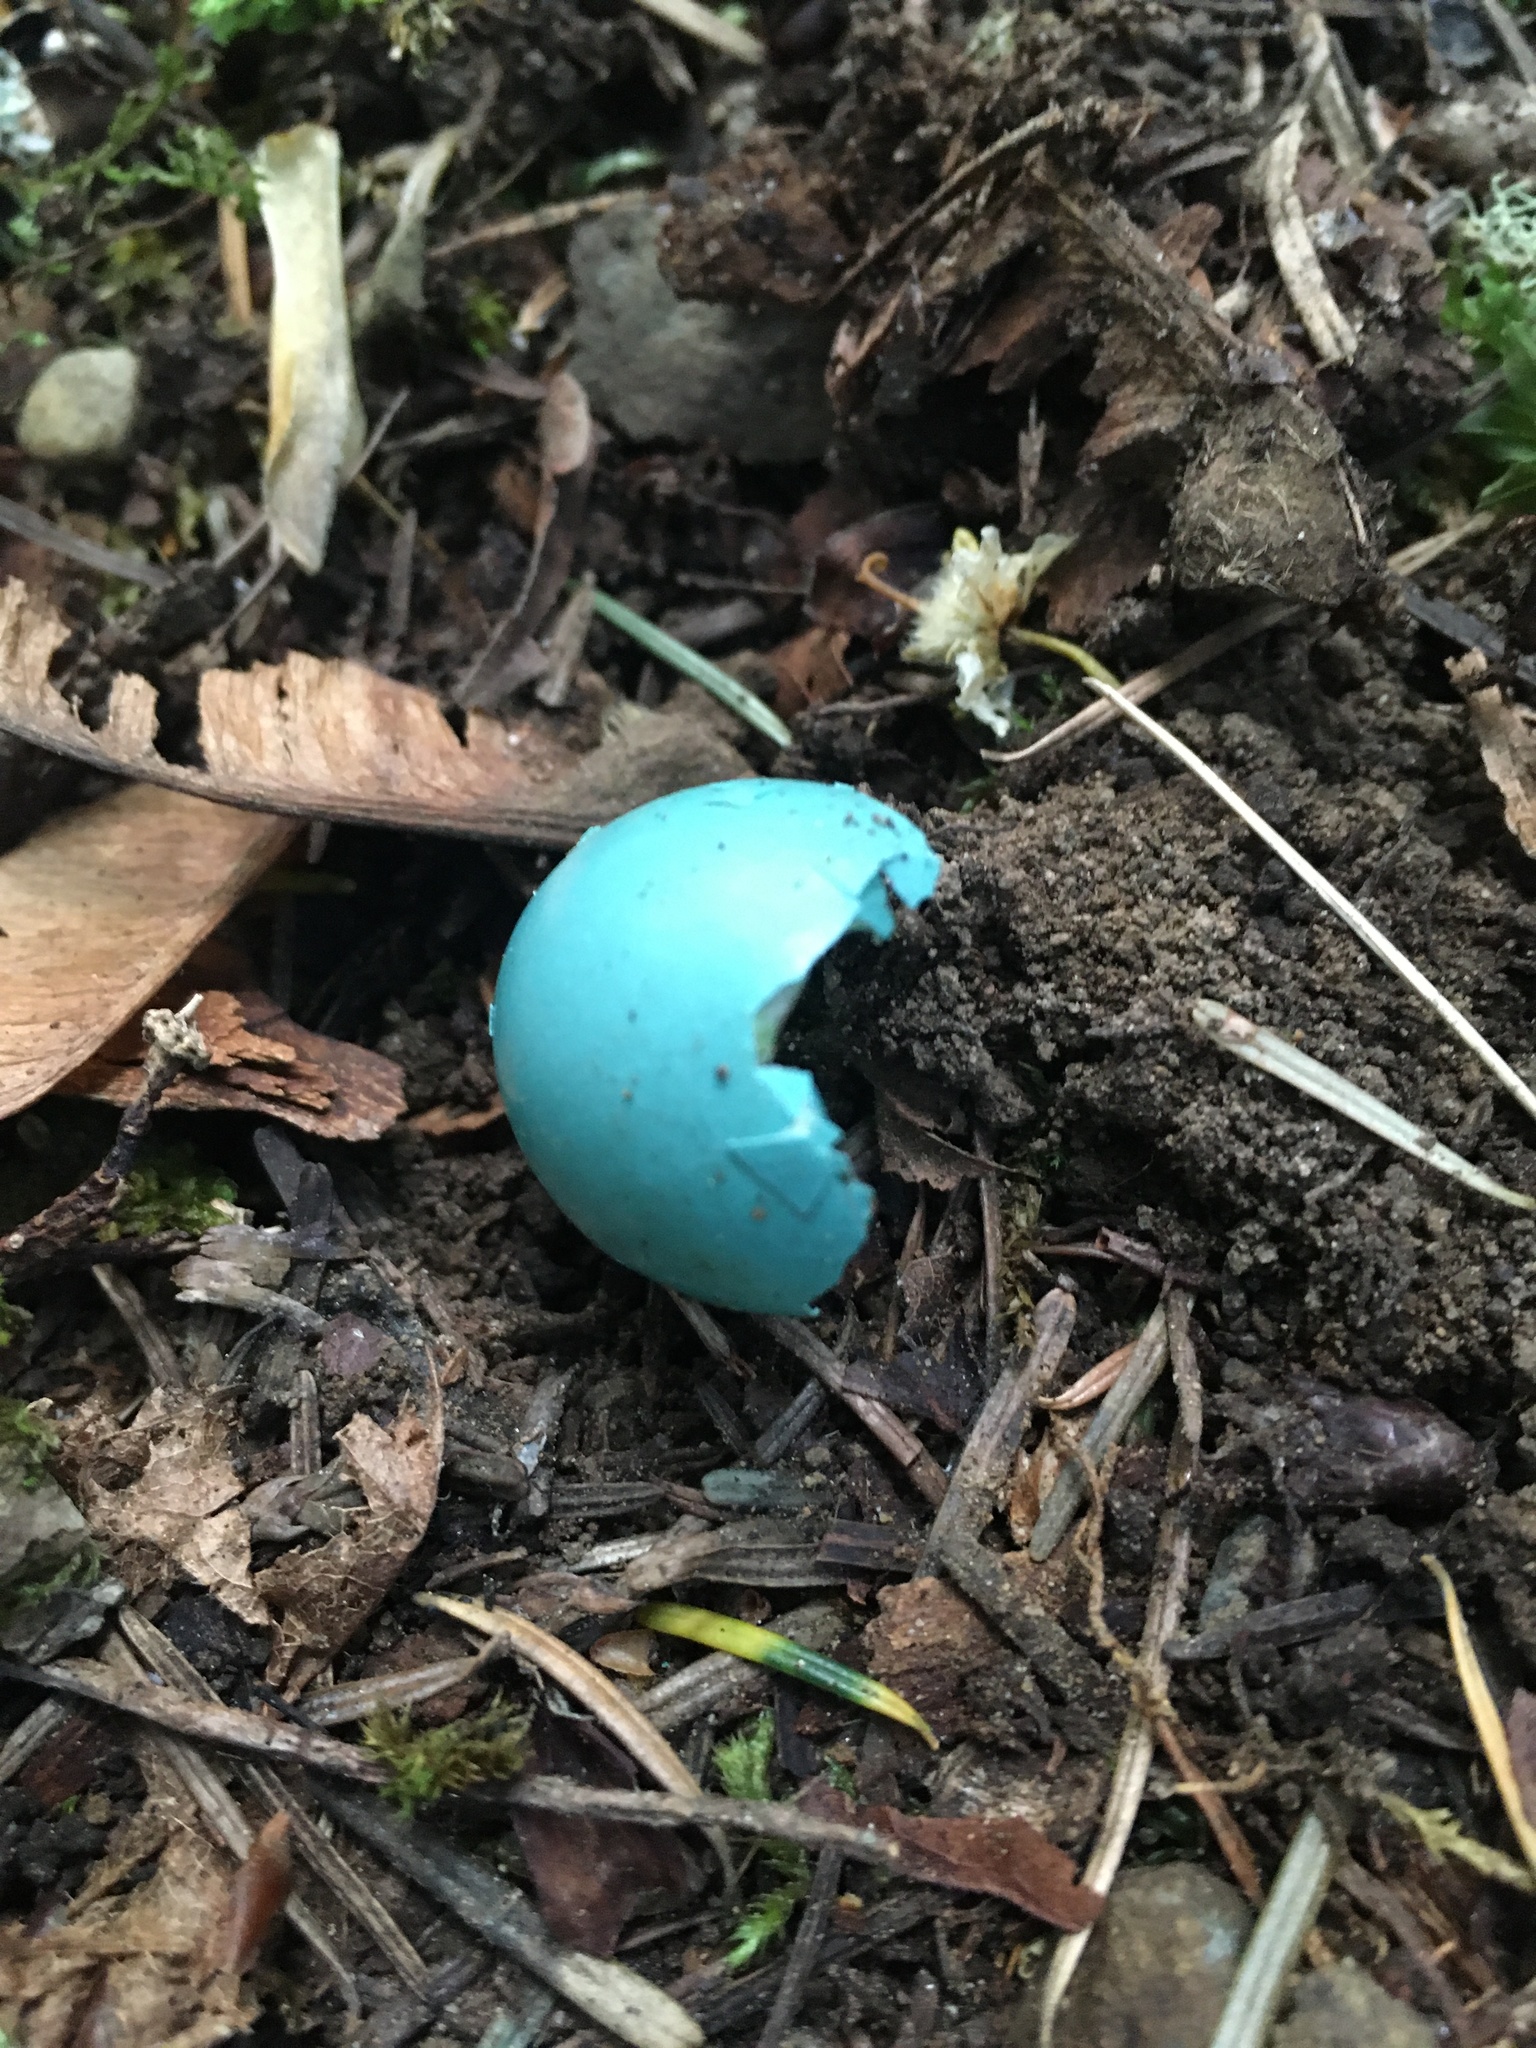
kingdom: Animalia
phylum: Chordata
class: Aves
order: Passeriformes
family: Turdidae
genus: Turdus
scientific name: Turdus migratorius
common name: American robin
